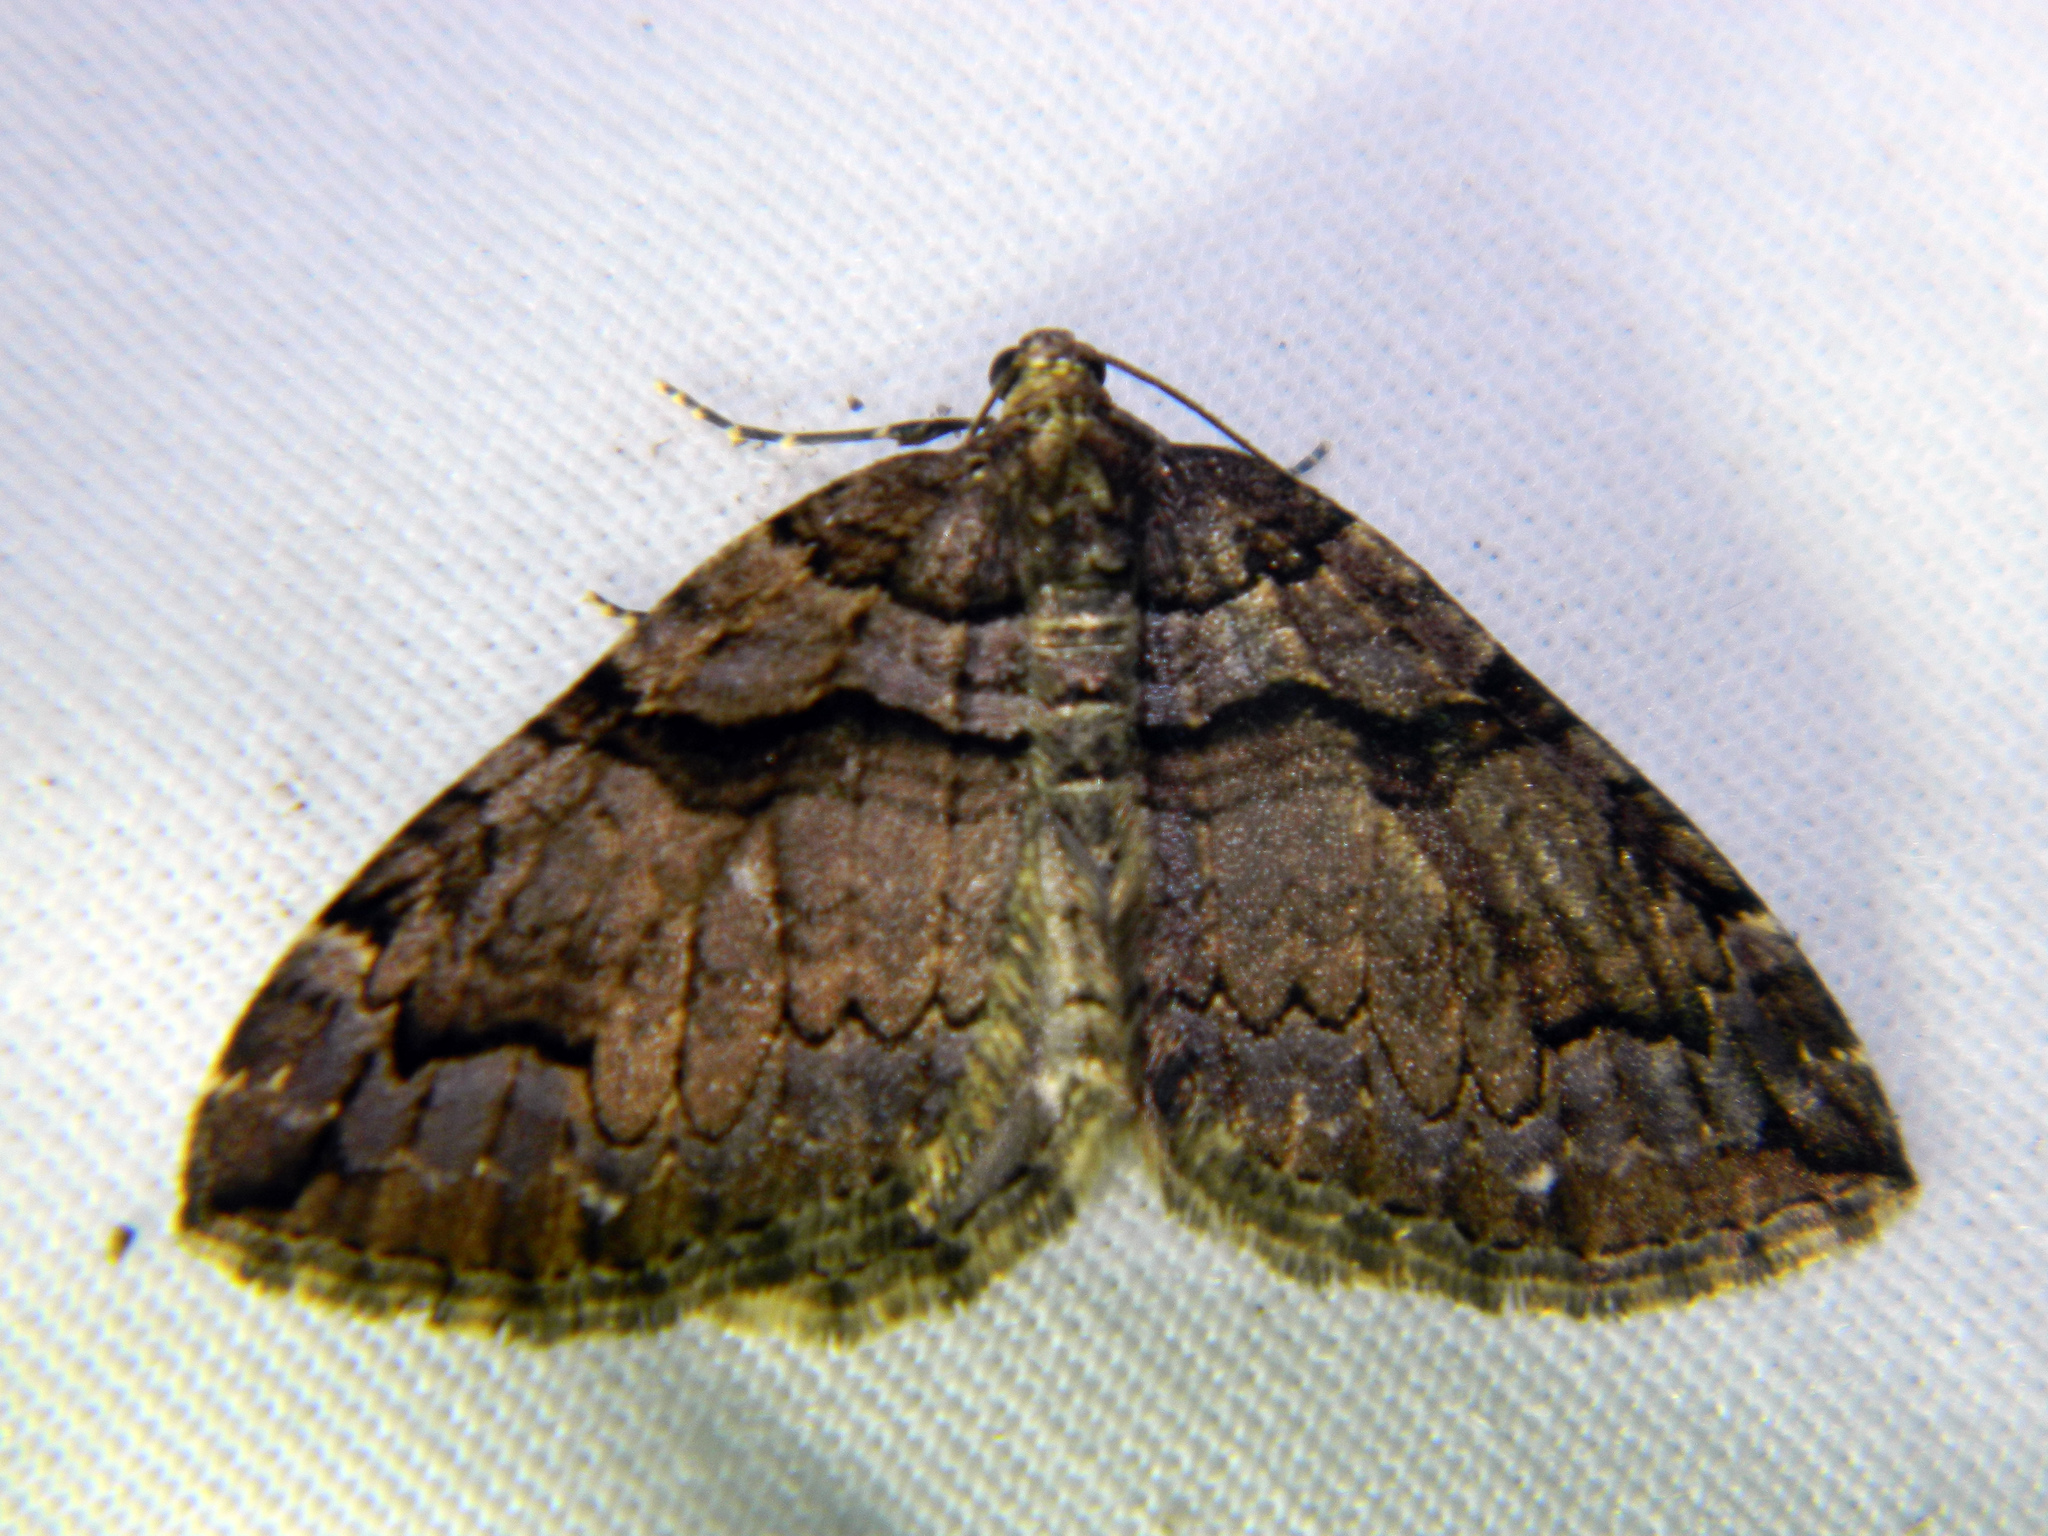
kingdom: Animalia
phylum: Arthropoda
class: Insecta
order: Lepidoptera
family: Geometridae
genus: Anticlea
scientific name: Anticlea vasiliata
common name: Variable carpet
